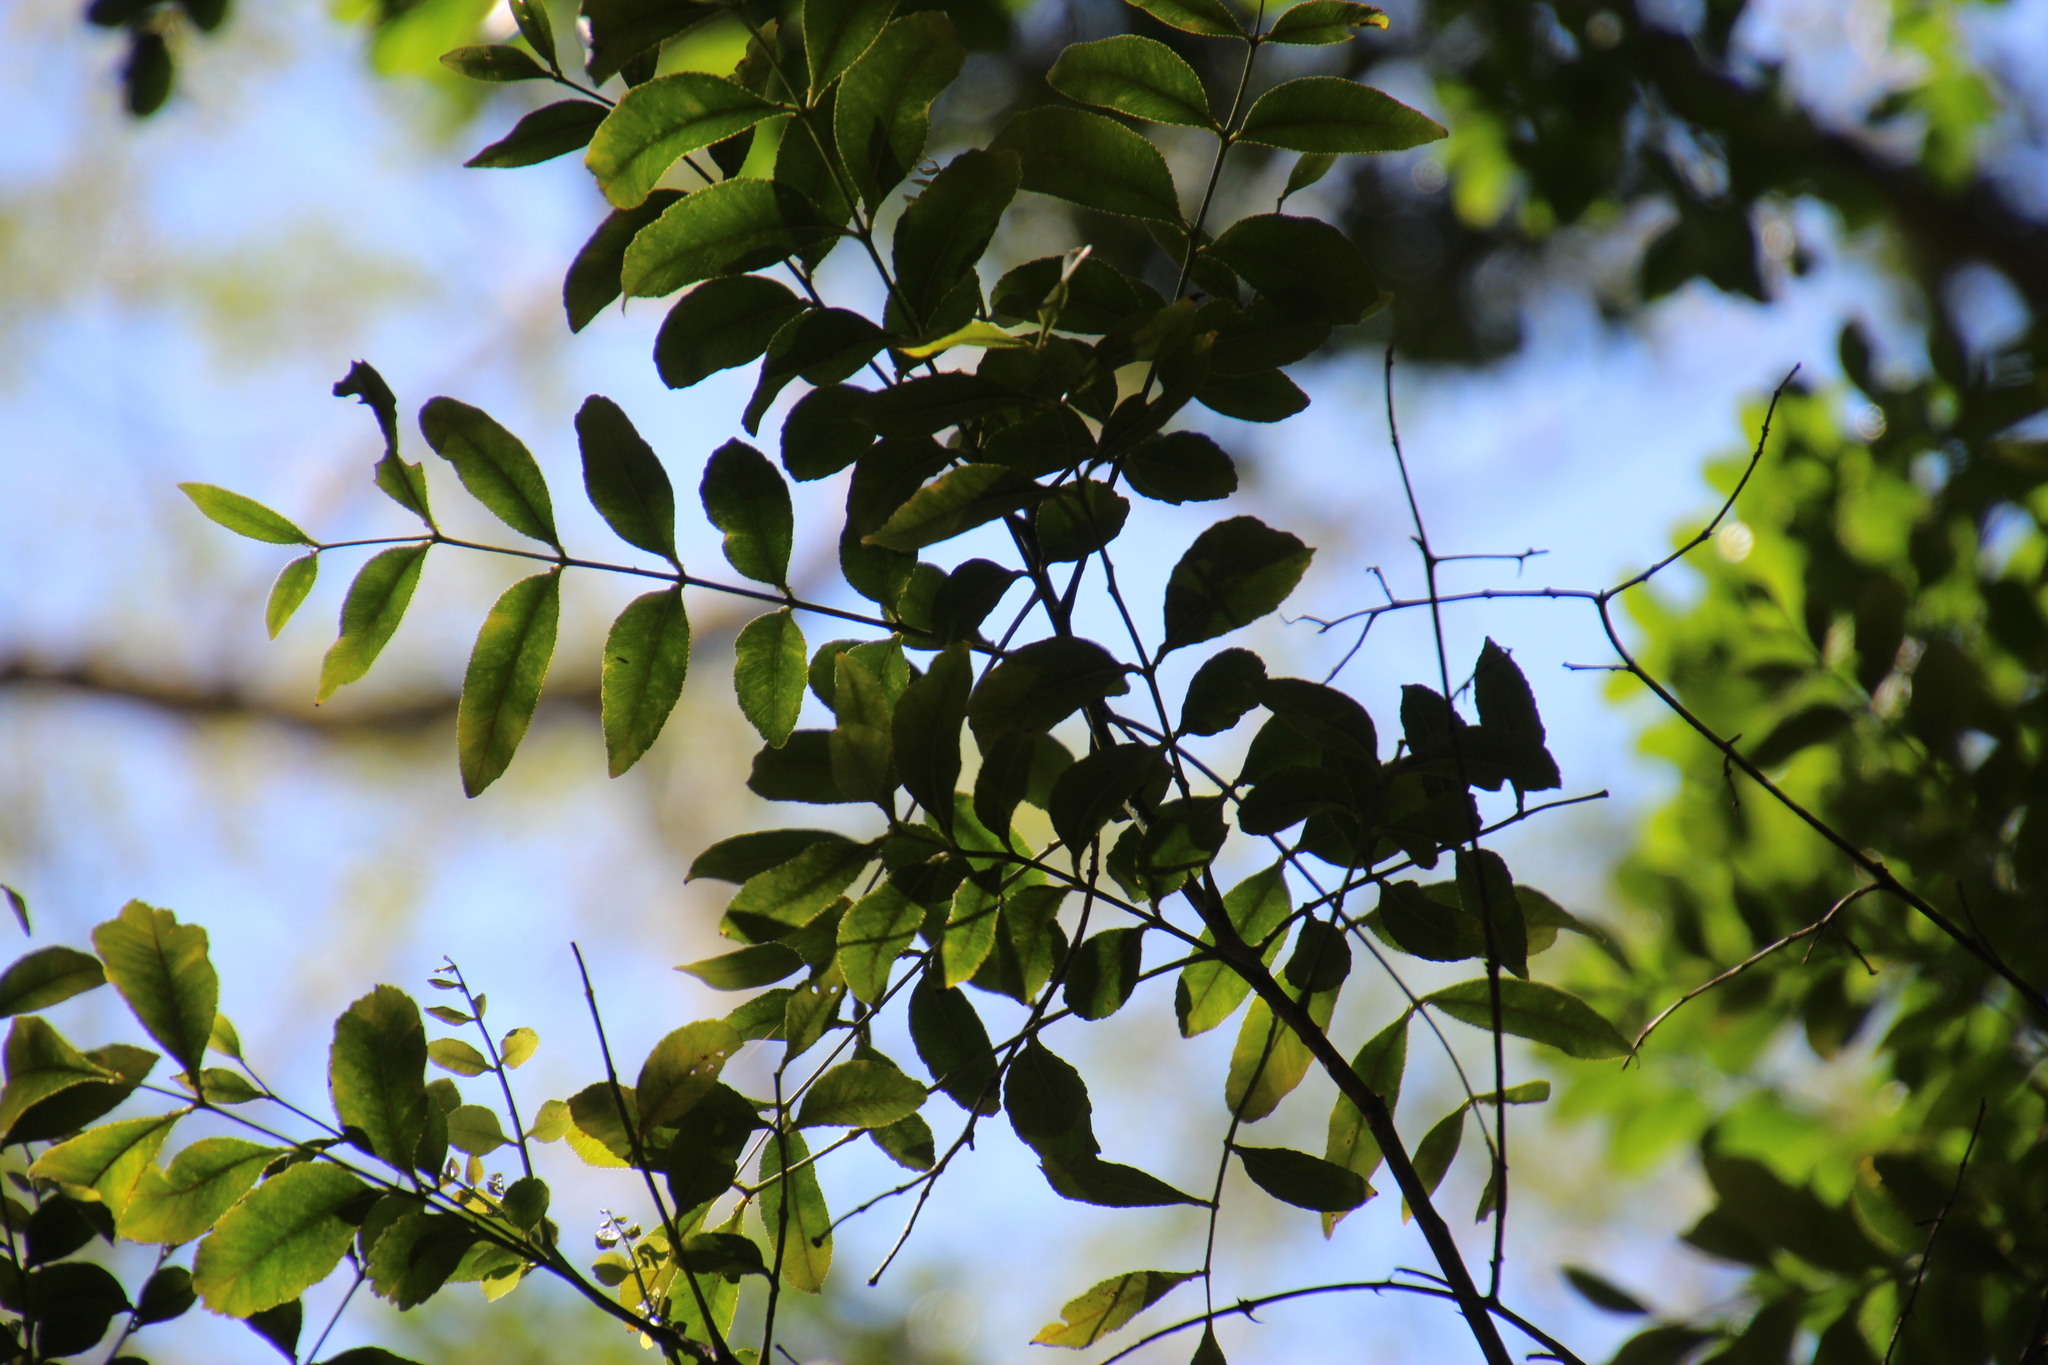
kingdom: Plantae
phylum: Tracheophyta
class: Magnoliopsida
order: Sapindales
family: Rutaceae
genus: Zanthoxylum
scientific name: Zanthoxylum davyi
